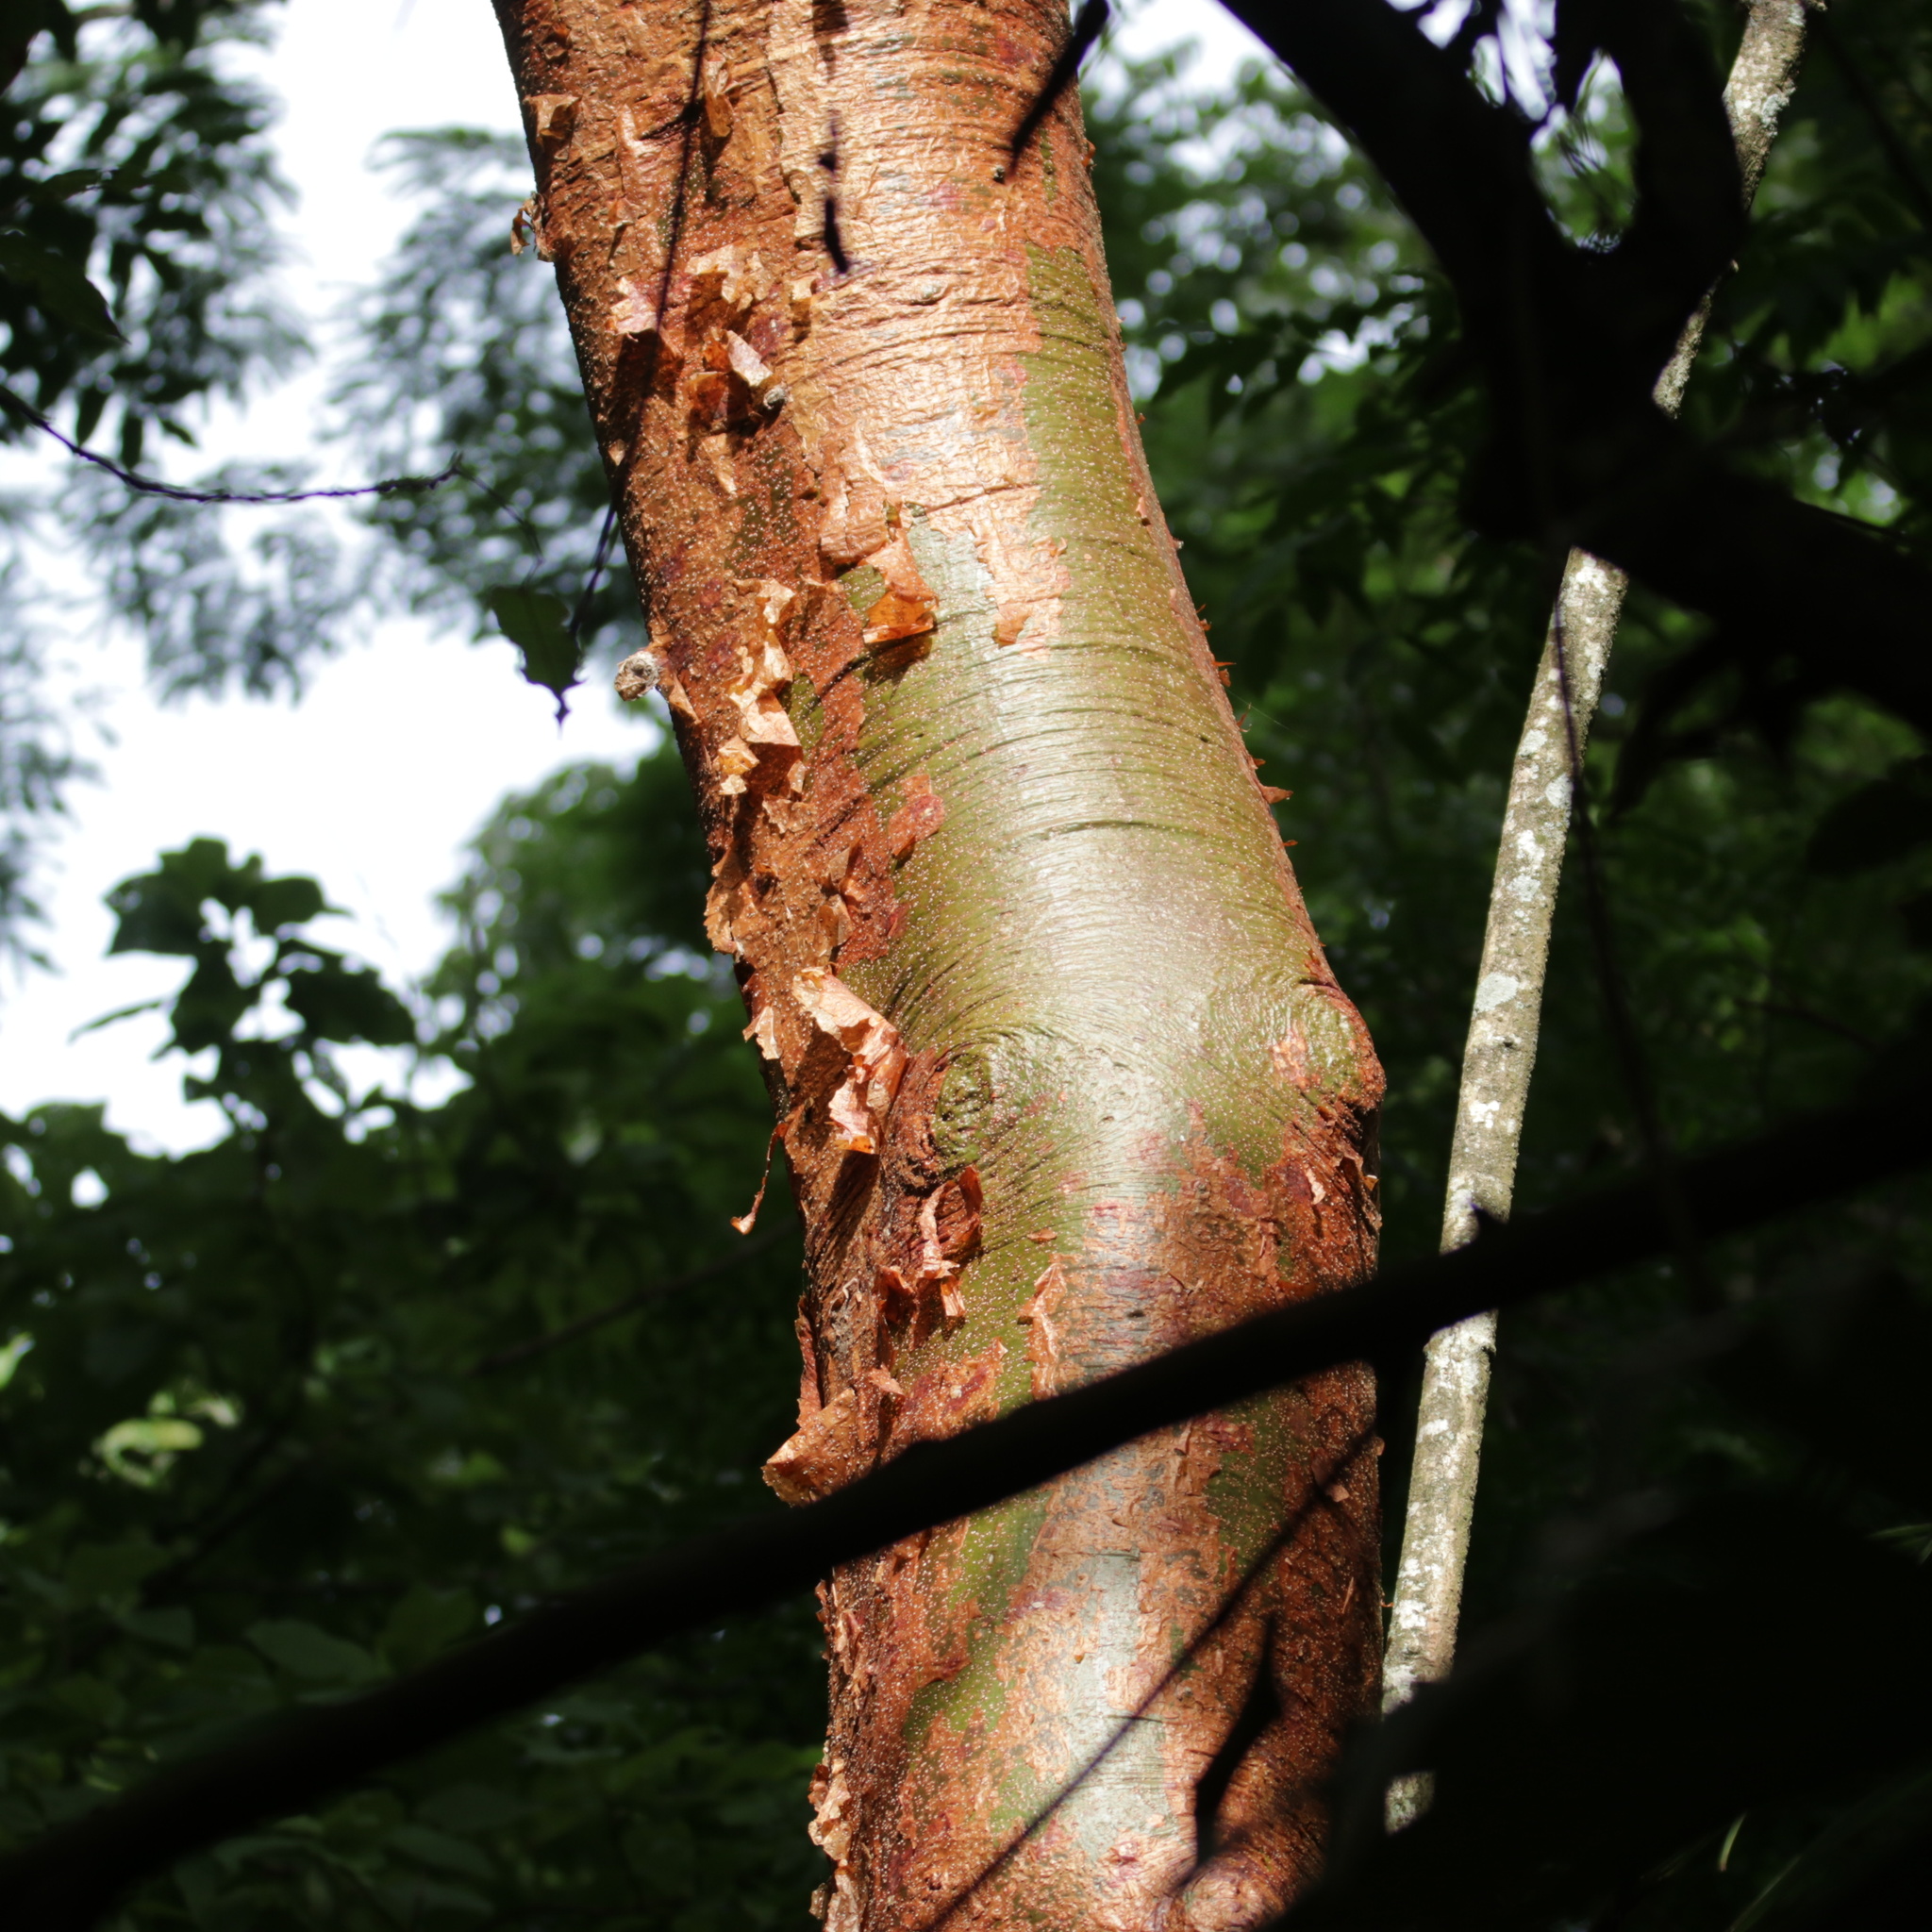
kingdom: Plantae
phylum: Tracheophyta
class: Magnoliopsida
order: Sapindales
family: Burseraceae
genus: Bursera
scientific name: Bursera simaruba
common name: Turpentine tree
